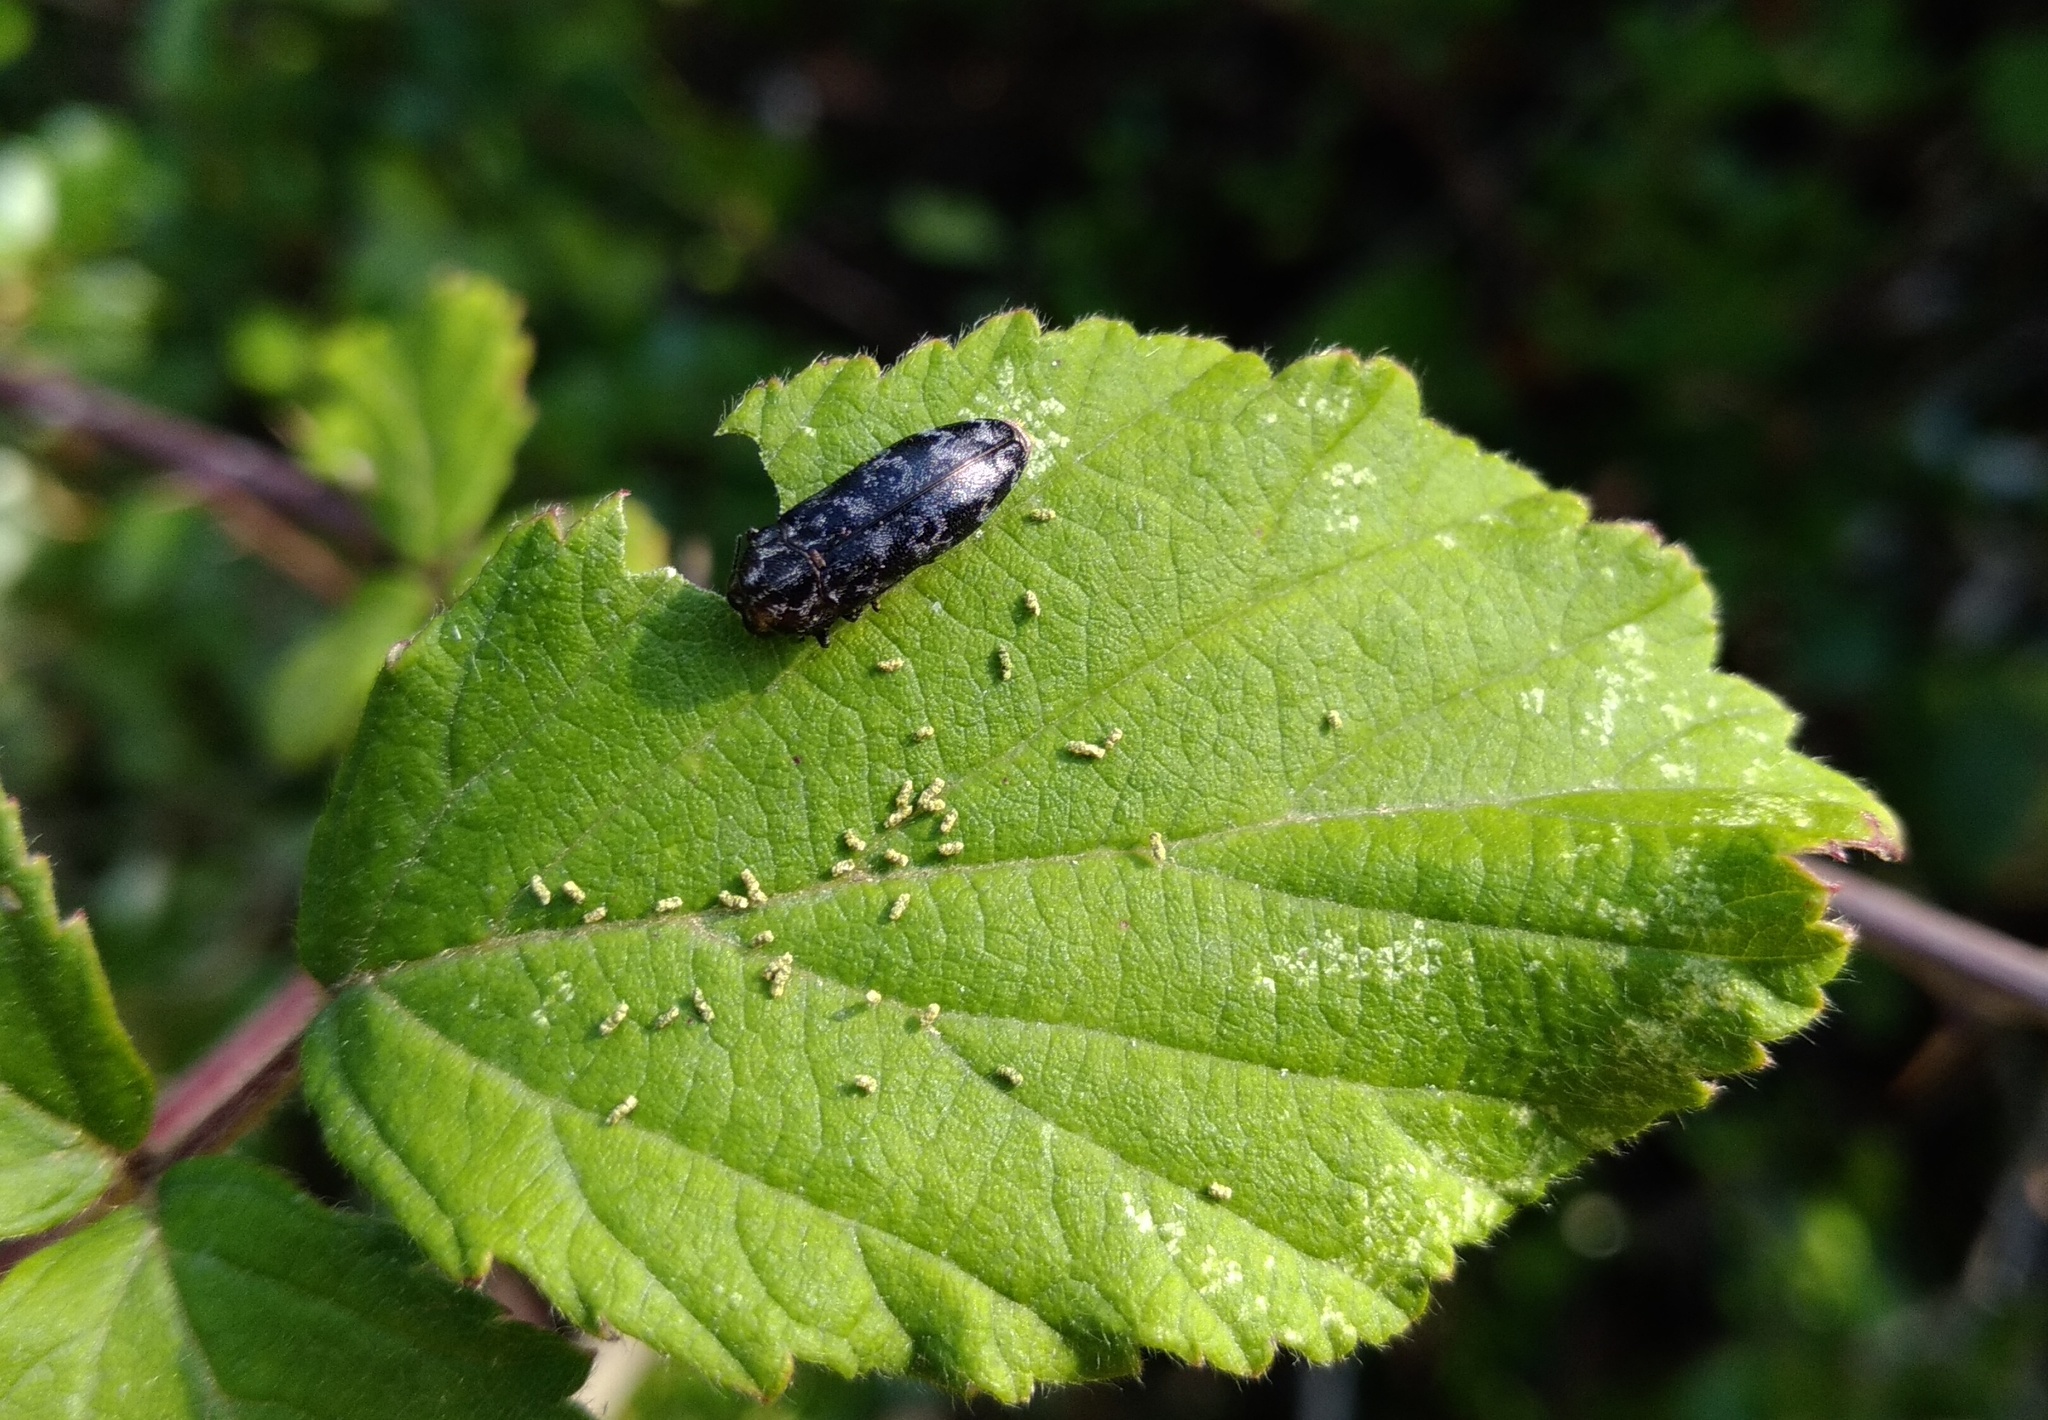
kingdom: Animalia
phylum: Arthropoda
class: Insecta
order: Coleoptera
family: Buprestidae
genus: Coraebus
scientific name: Coraebus rubi
